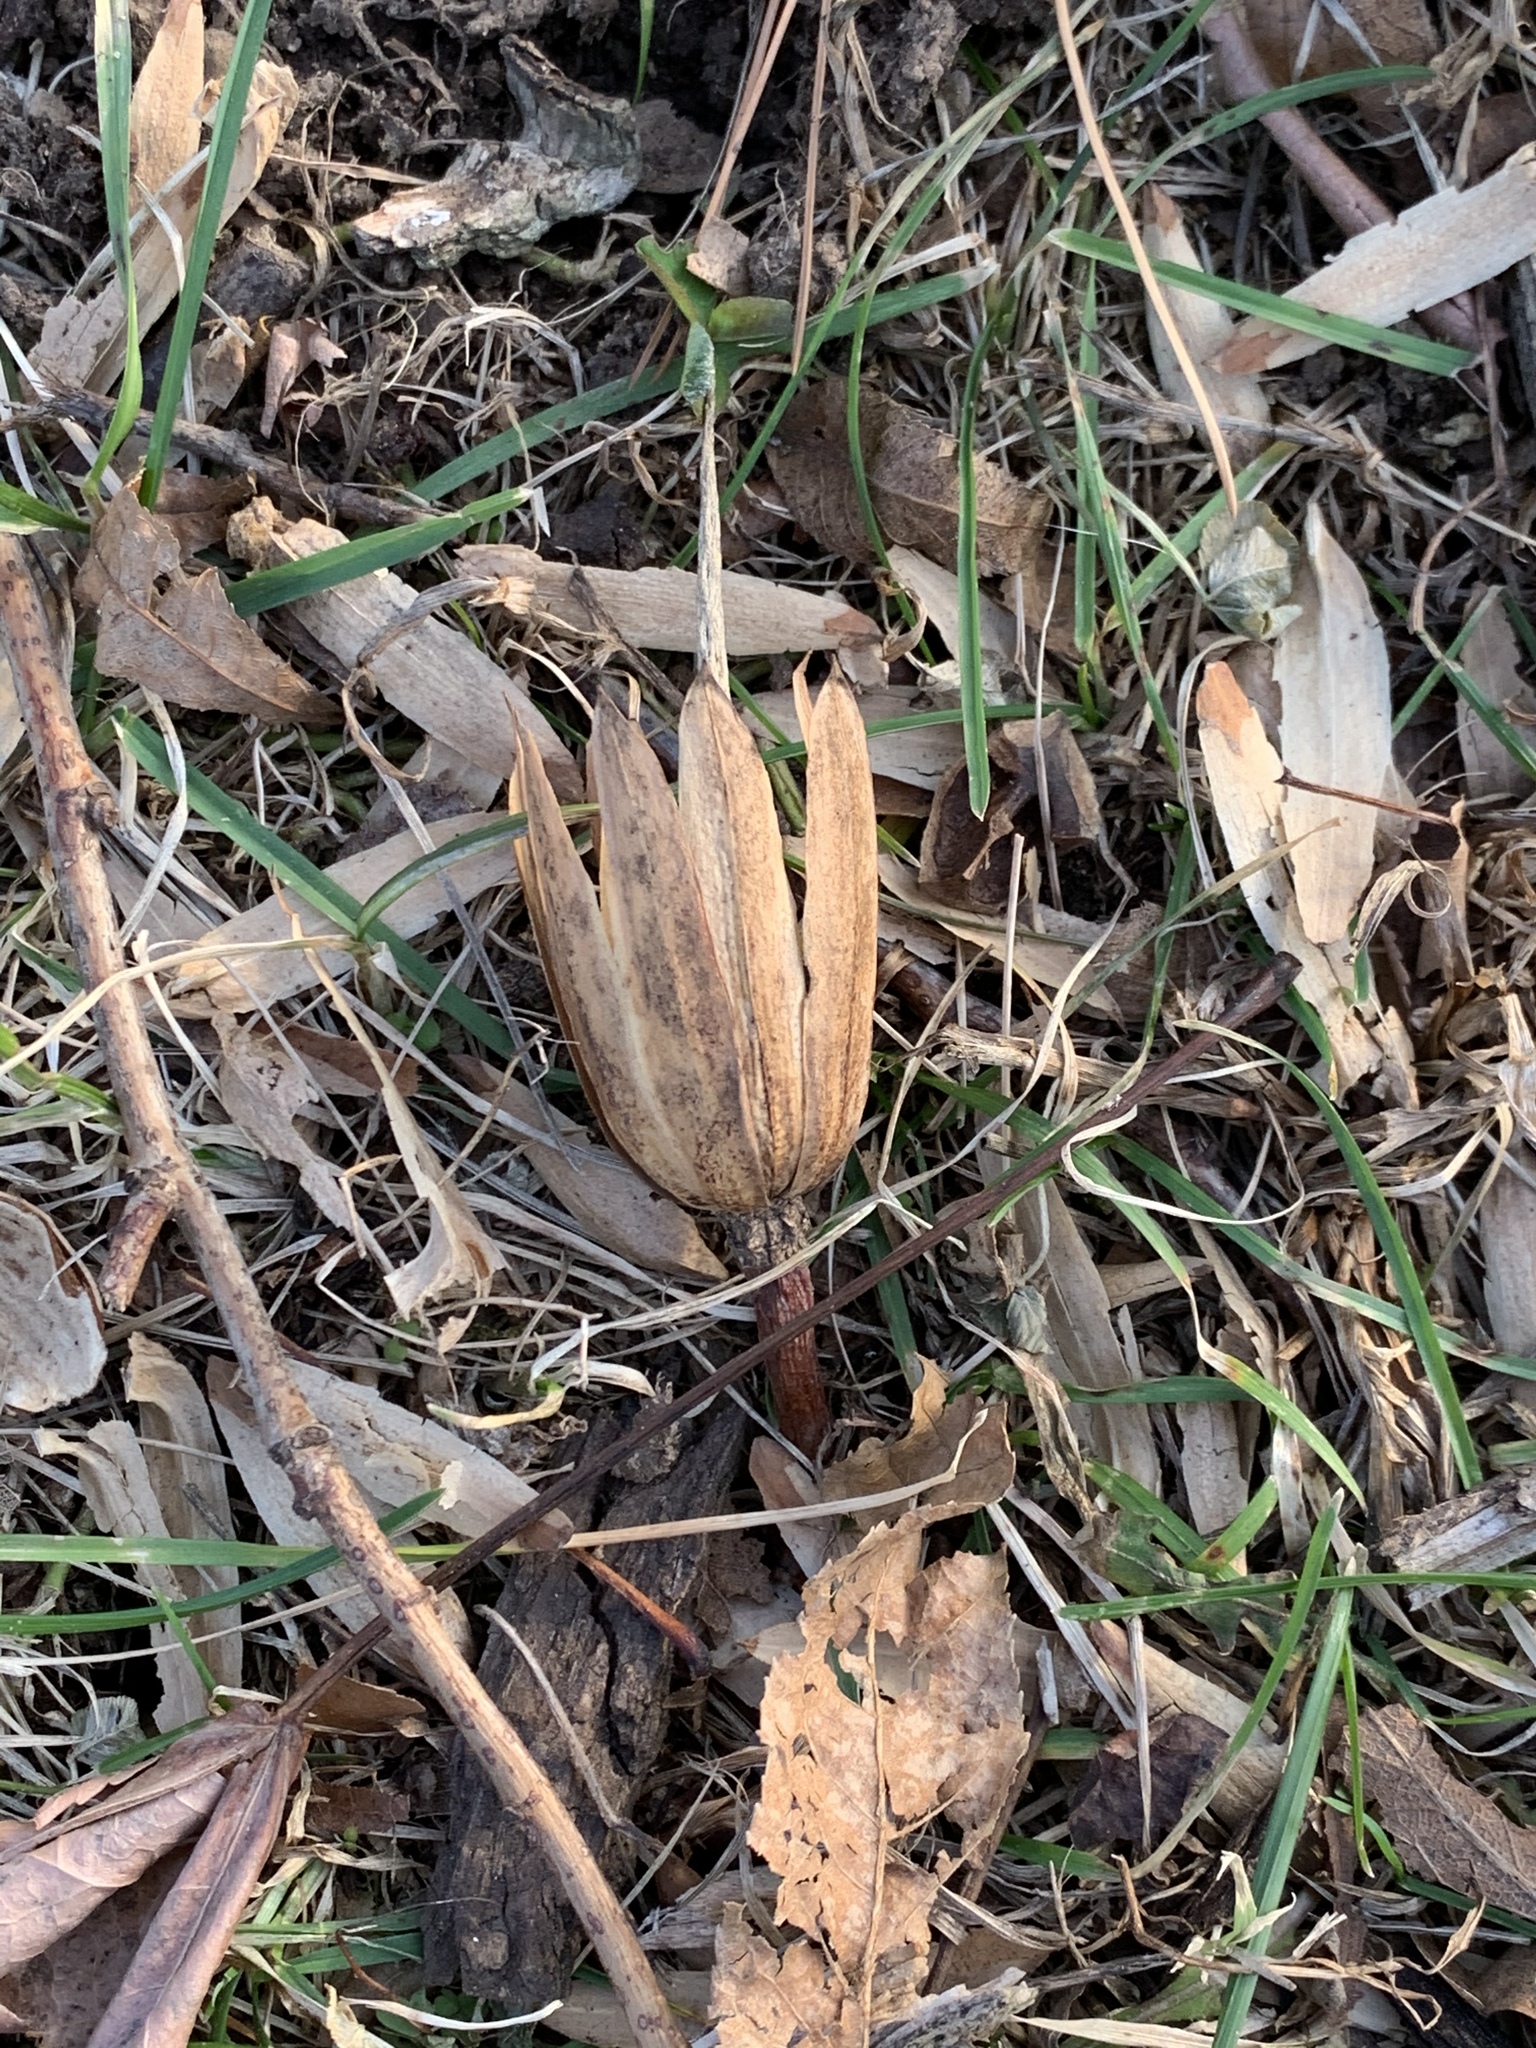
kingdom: Plantae
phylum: Tracheophyta
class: Magnoliopsida
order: Magnoliales
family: Magnoliaceae
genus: Liriodendron
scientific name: Liriodendron tulipifera
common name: Tulip tree
